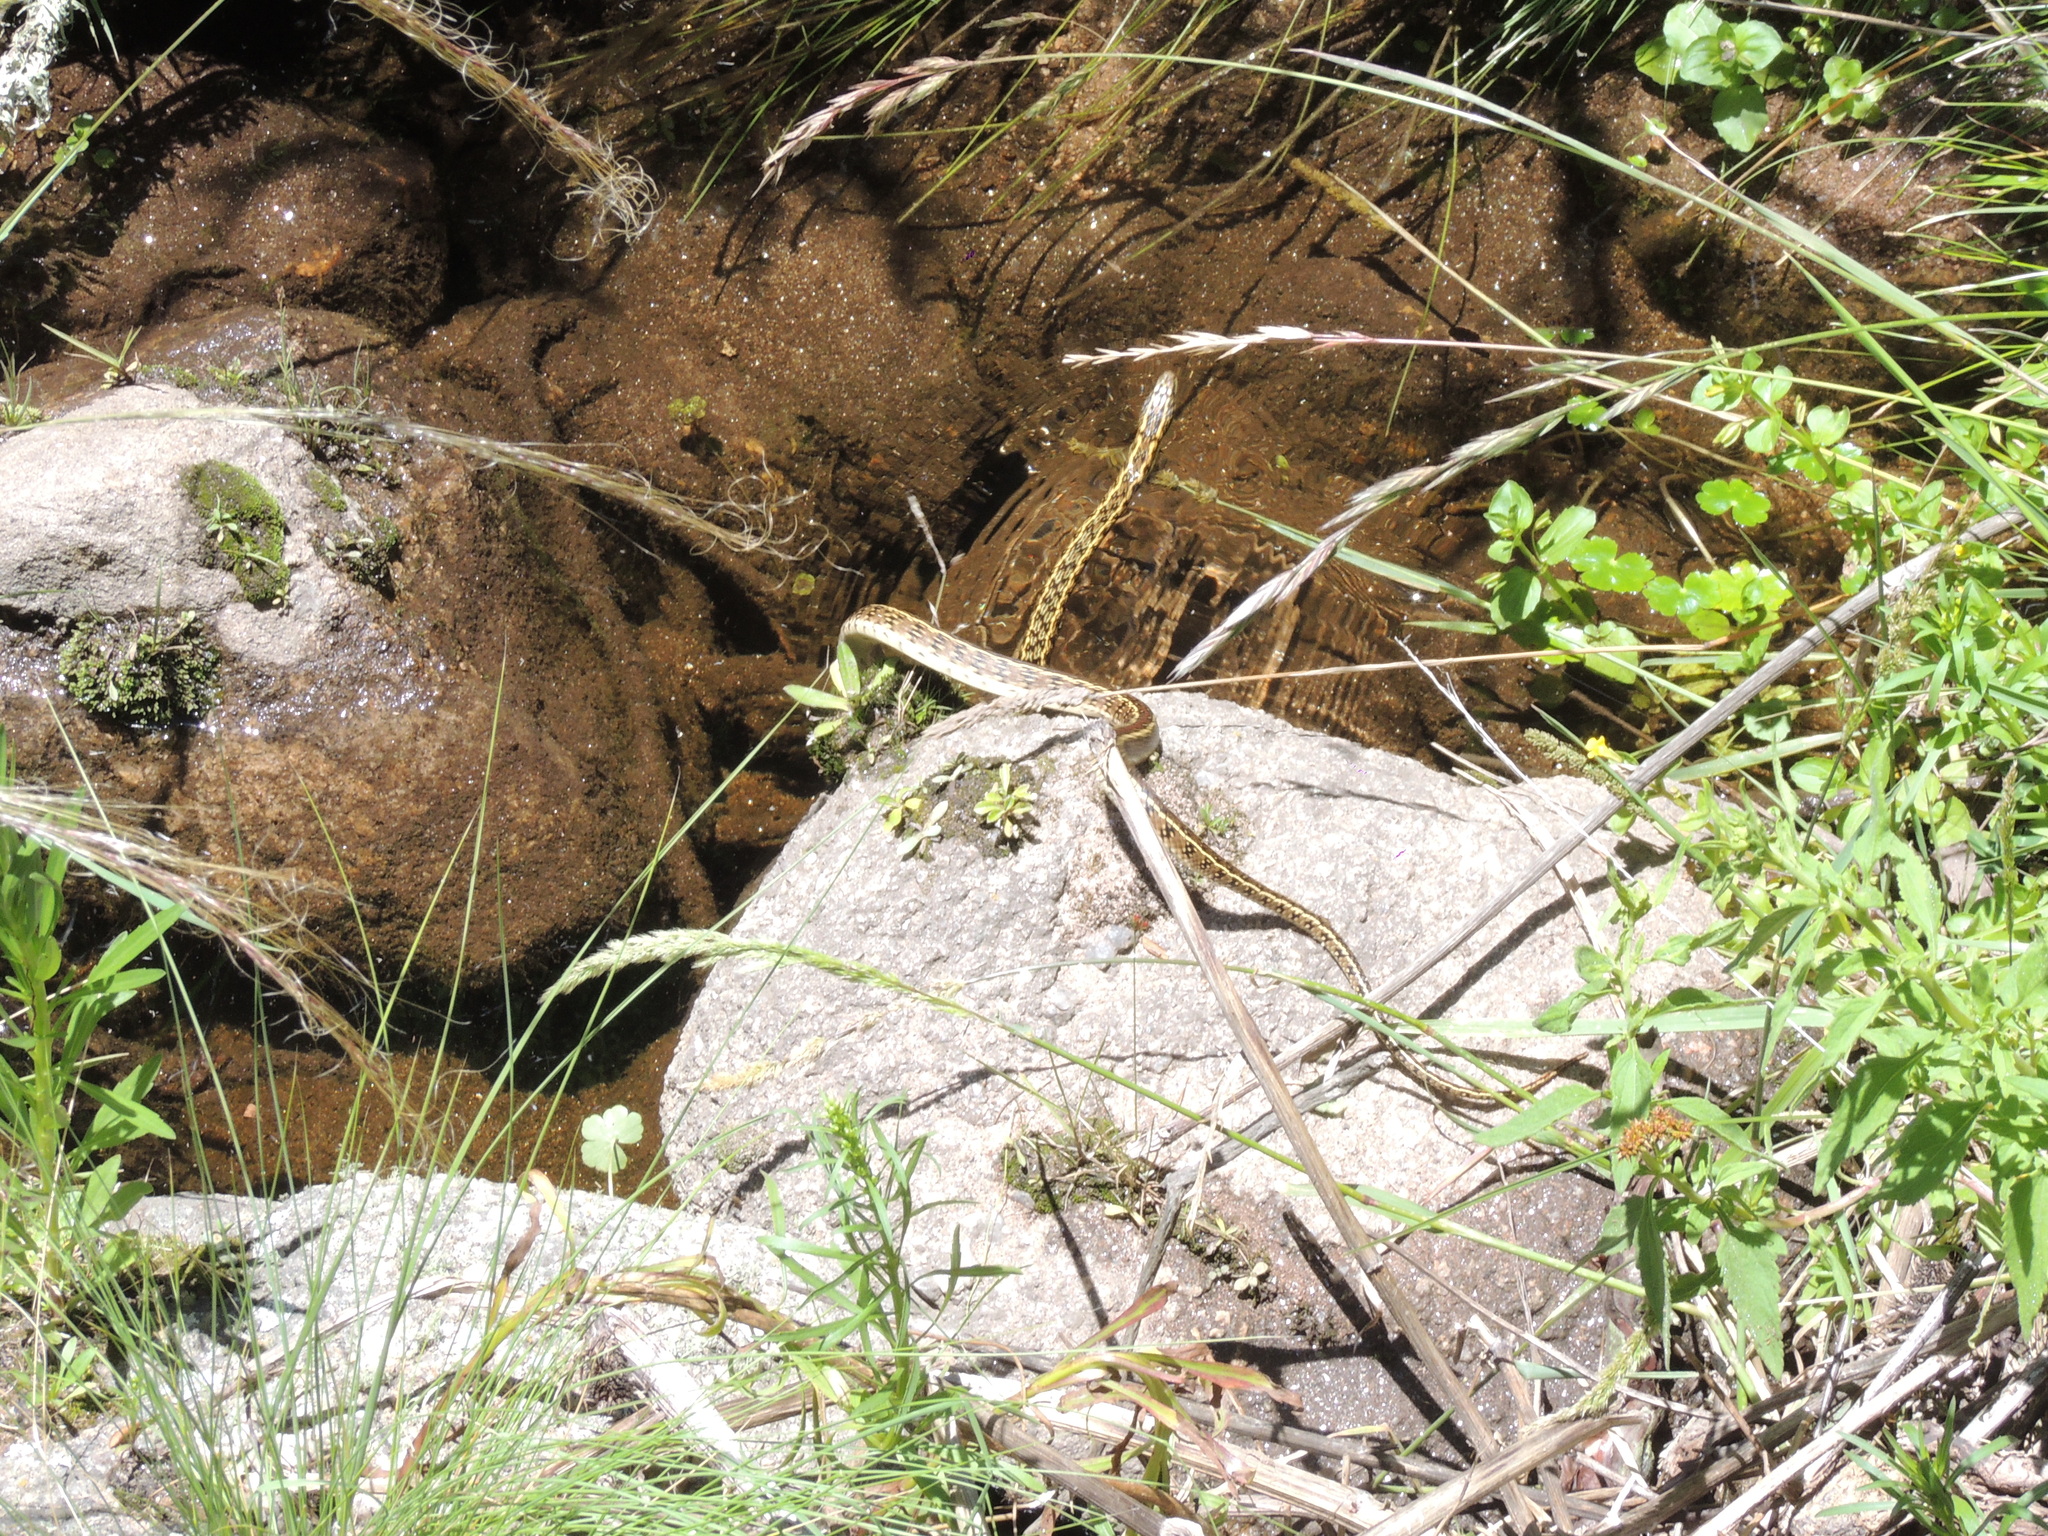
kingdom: Animalia
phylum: Chordata
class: Squamata
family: Colubridae
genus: Lygophis
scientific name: Lygophis anomalus
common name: English common name not available
